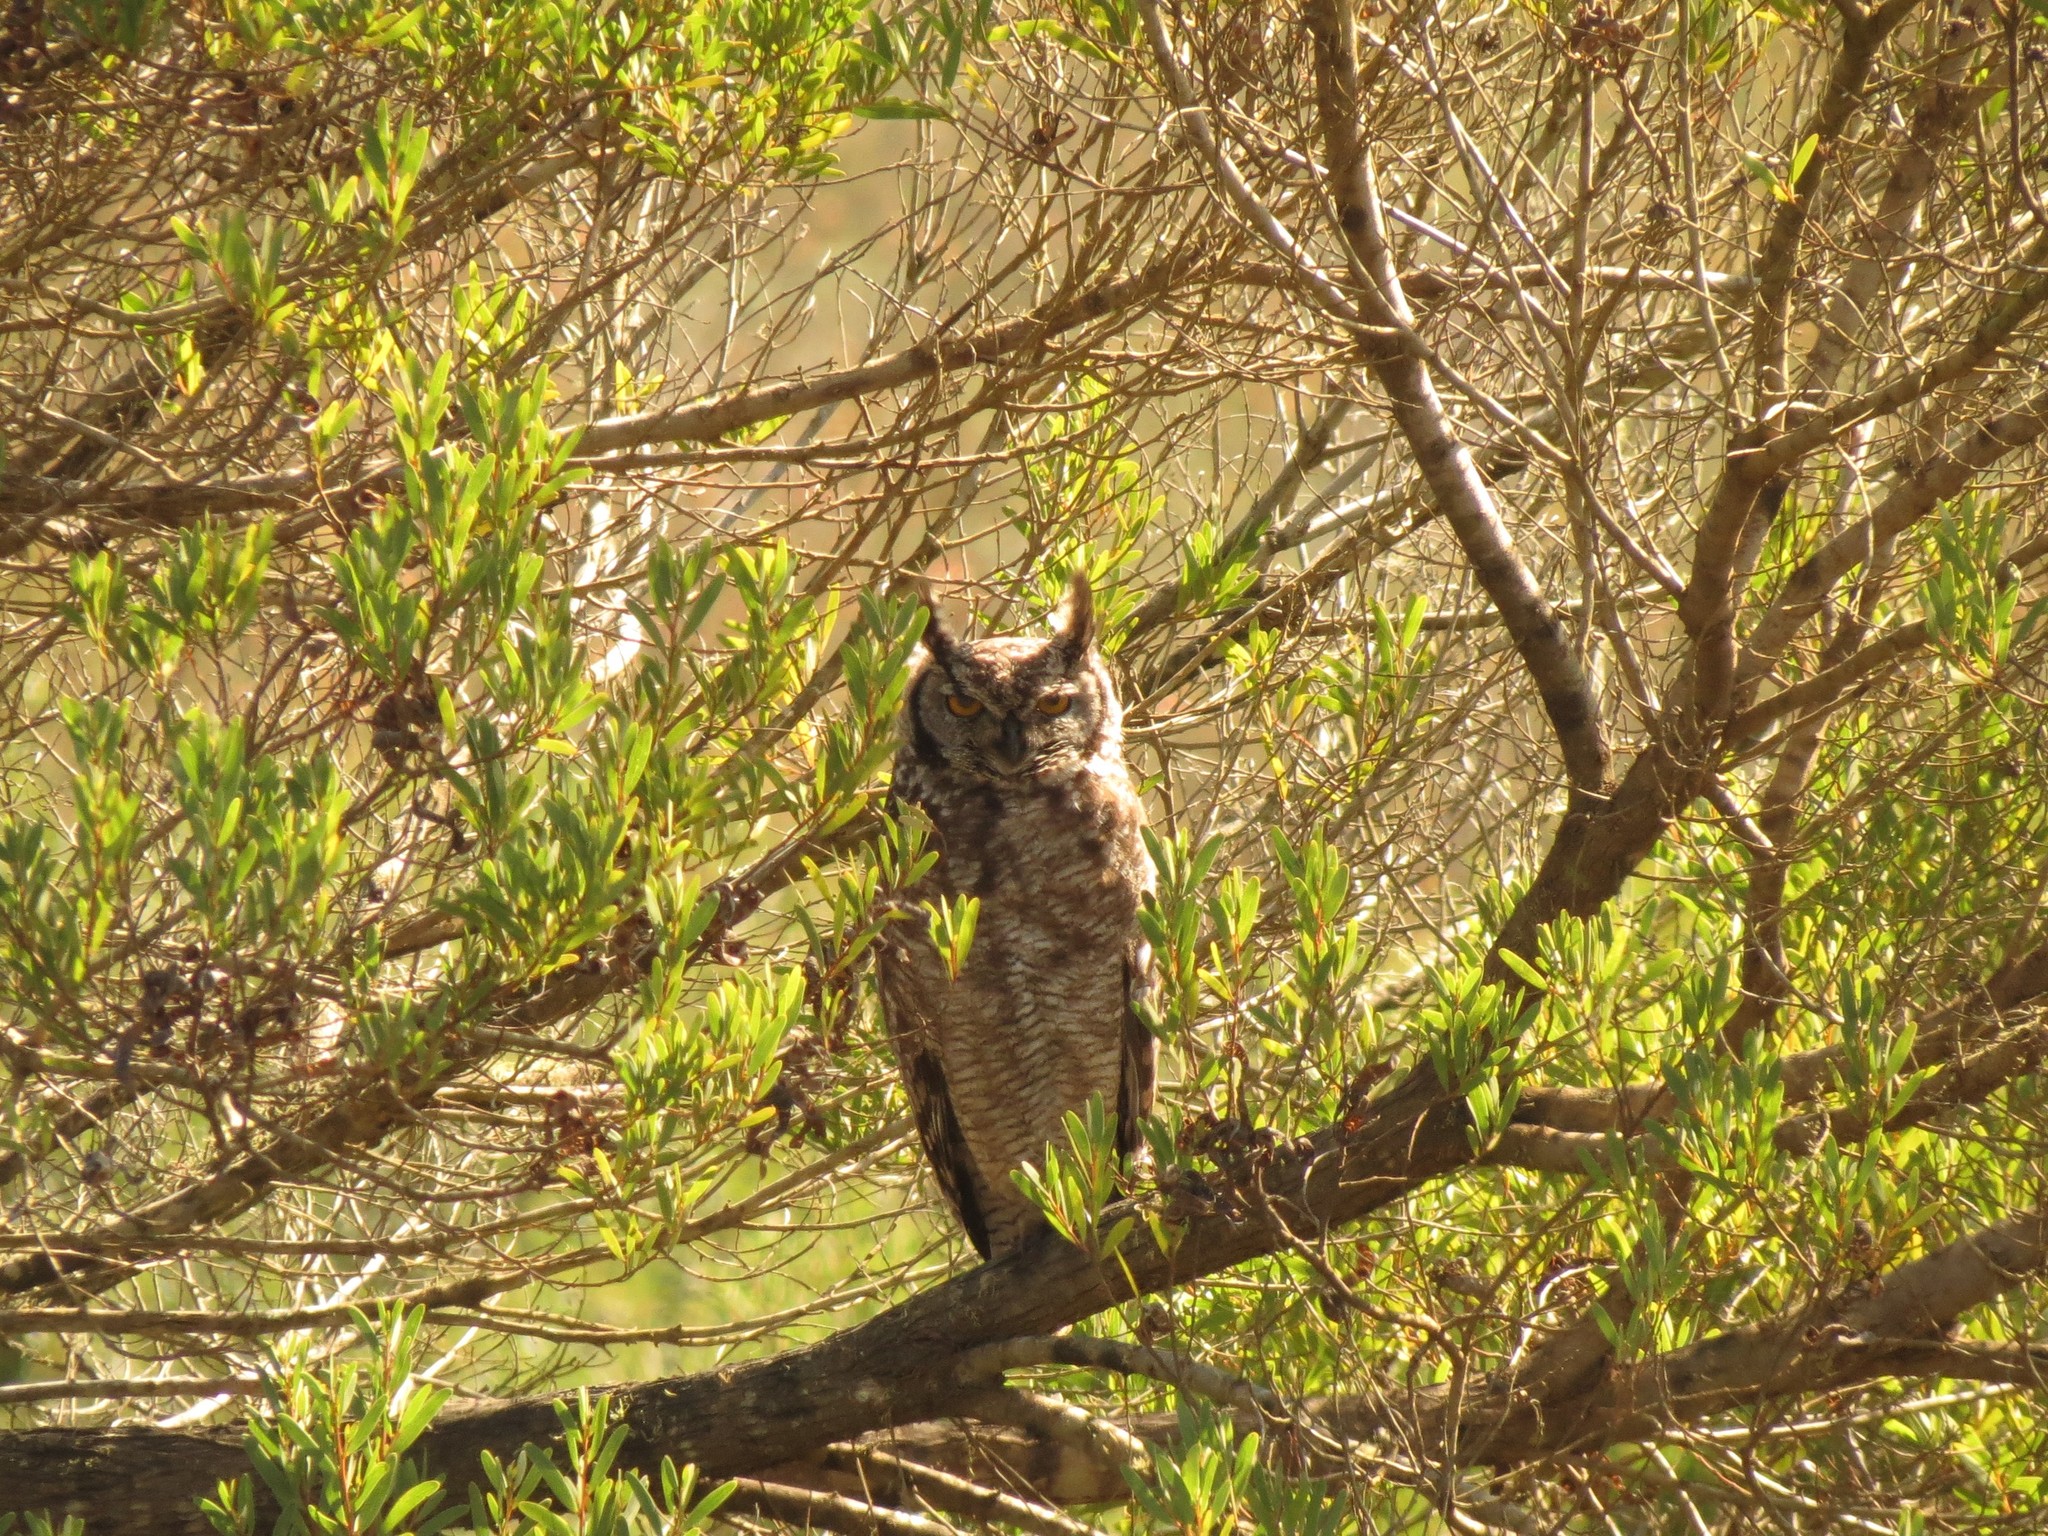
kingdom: Animalia
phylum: Chordata
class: Aves
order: Strigiformes
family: Strigidae
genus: Bubo
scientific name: Bubo africanus
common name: Spotted eagle-owl
